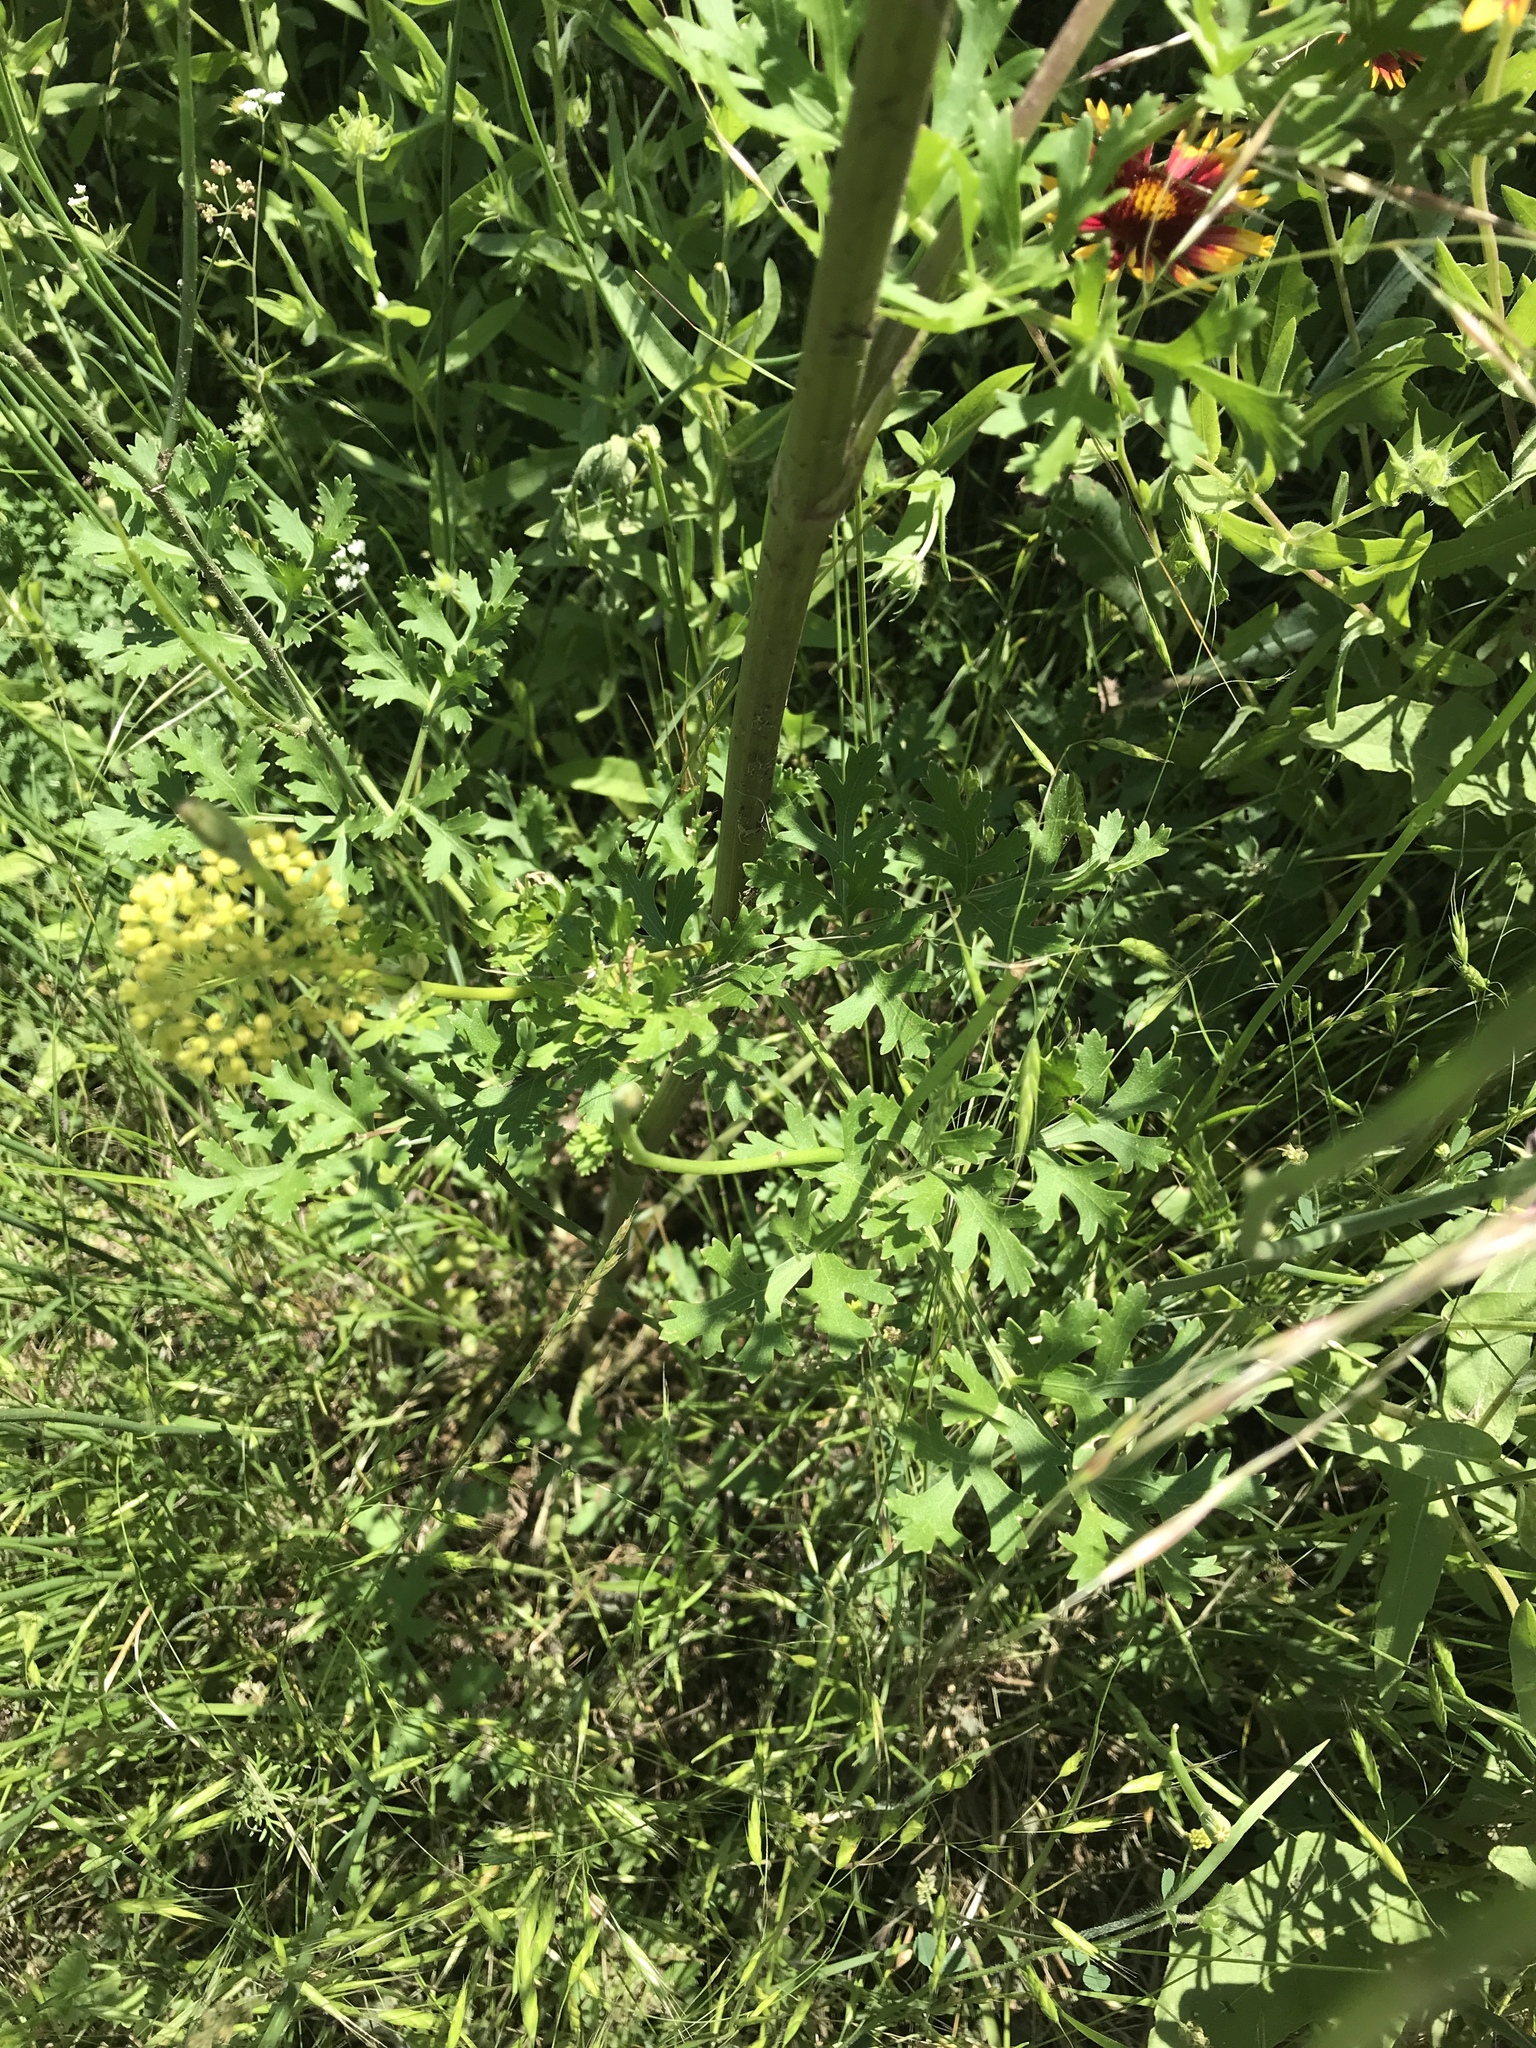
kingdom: Plantae
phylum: Tracheophyta
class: Magnoliopsida
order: Apiales
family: Apiaceae
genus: Polytaenia
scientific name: Polytaenia texana
